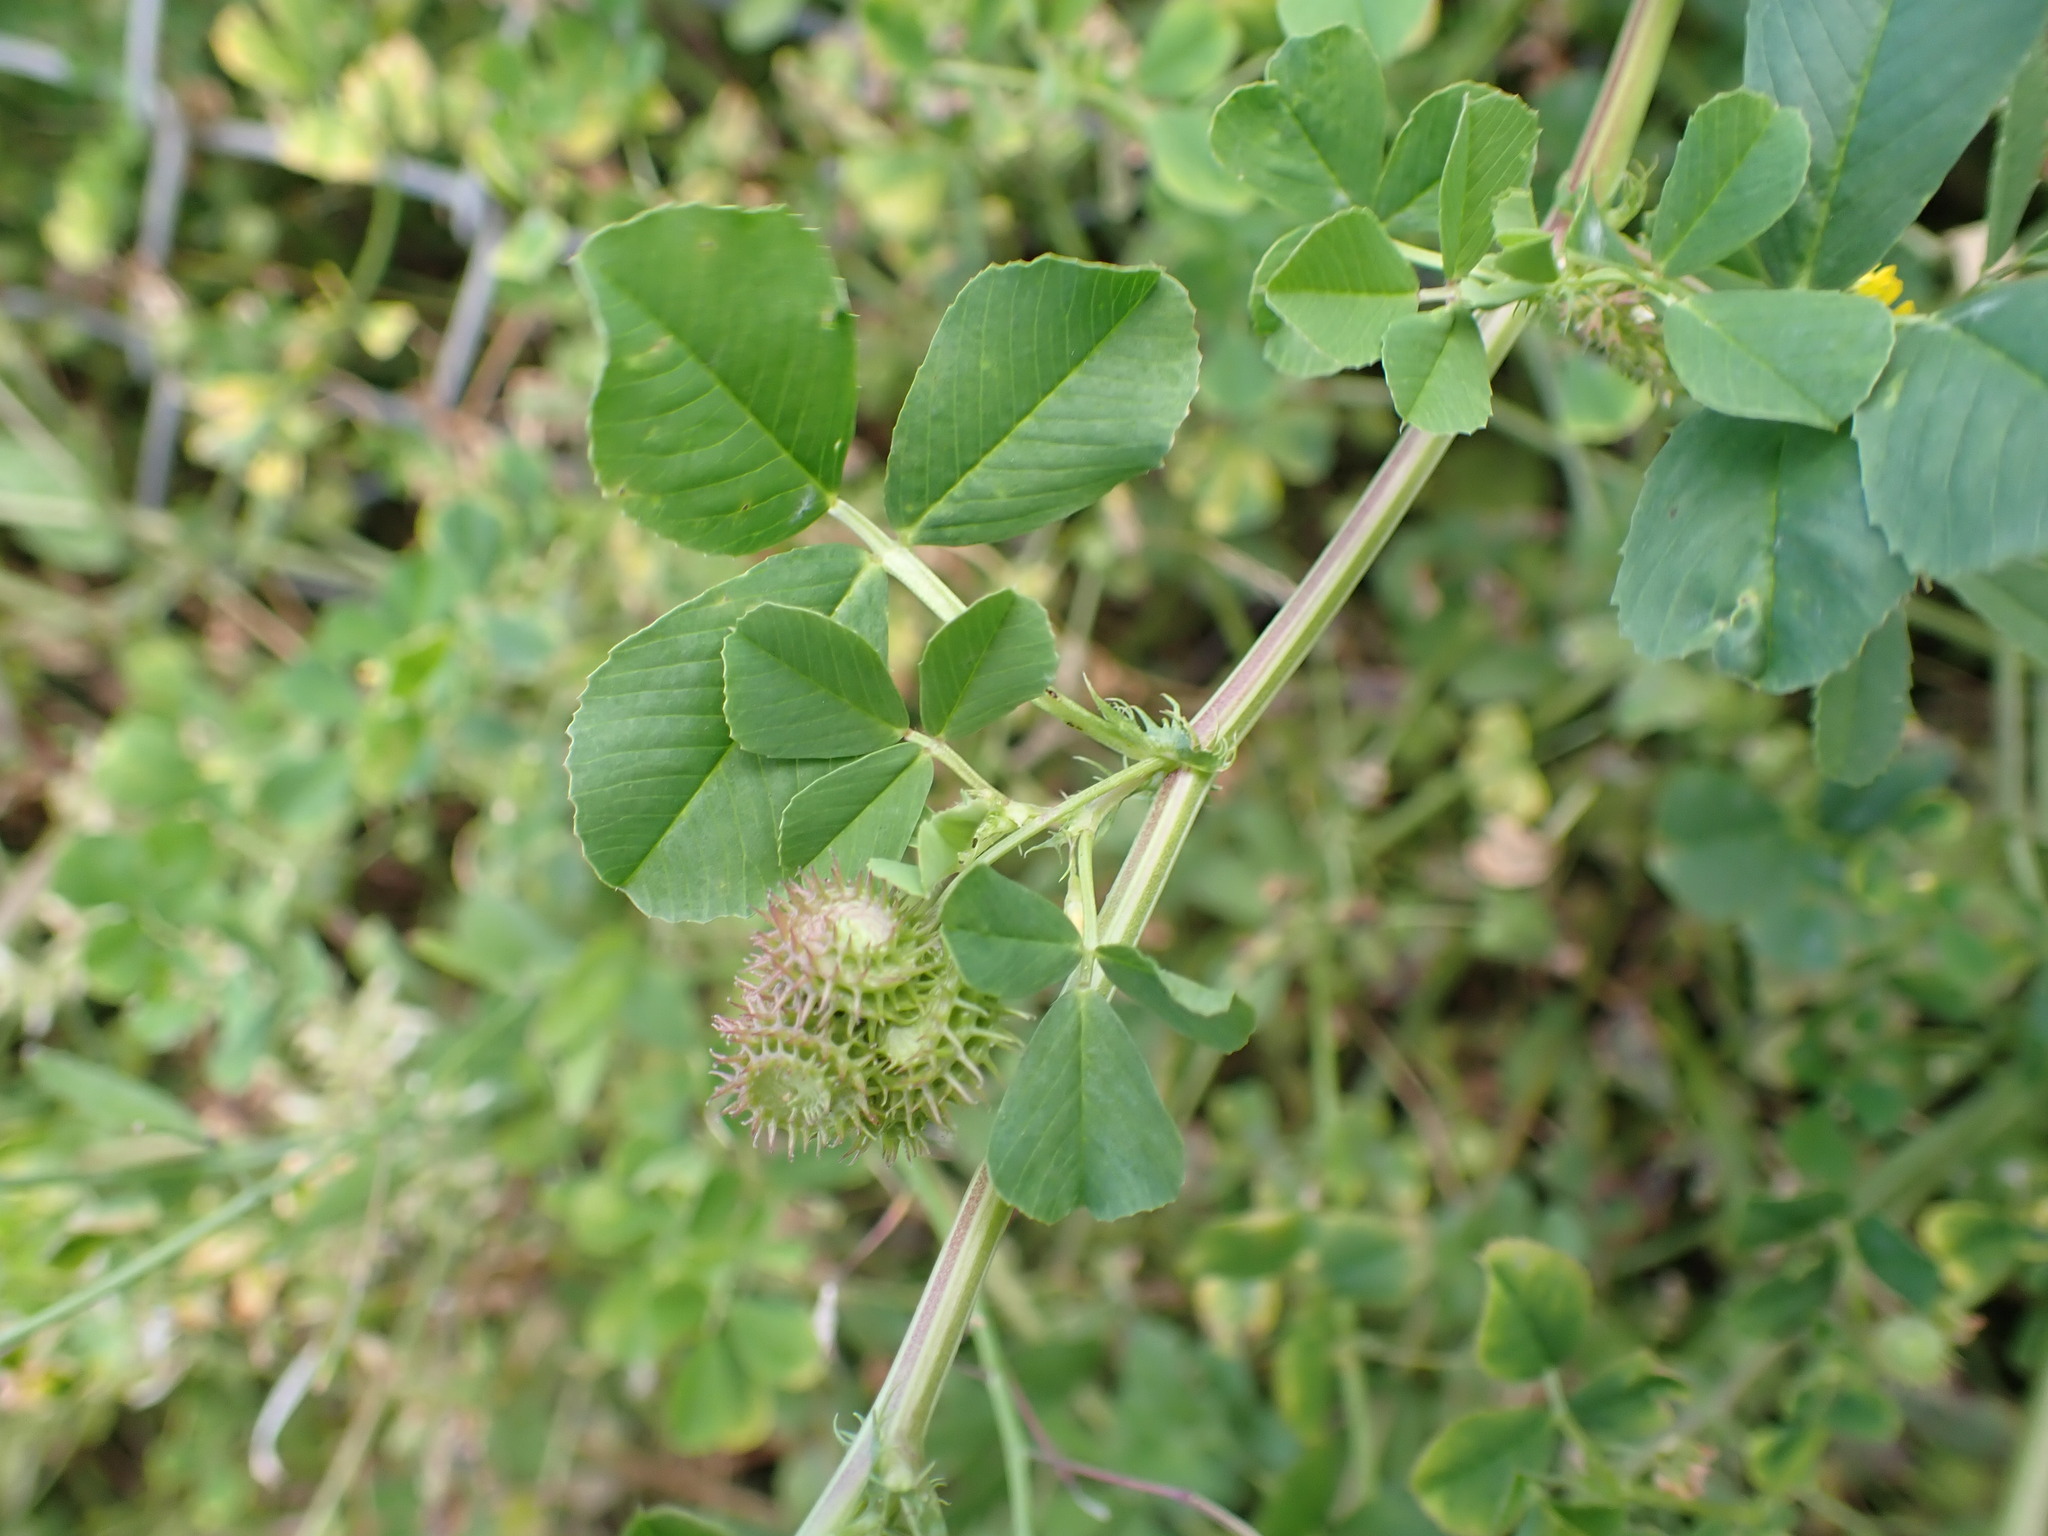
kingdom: Plantae
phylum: Tracheophyta
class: Magnoliopsida
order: Fabales
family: Fabaceae
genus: Medicago
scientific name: Medicago polymorpha
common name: Burclover
